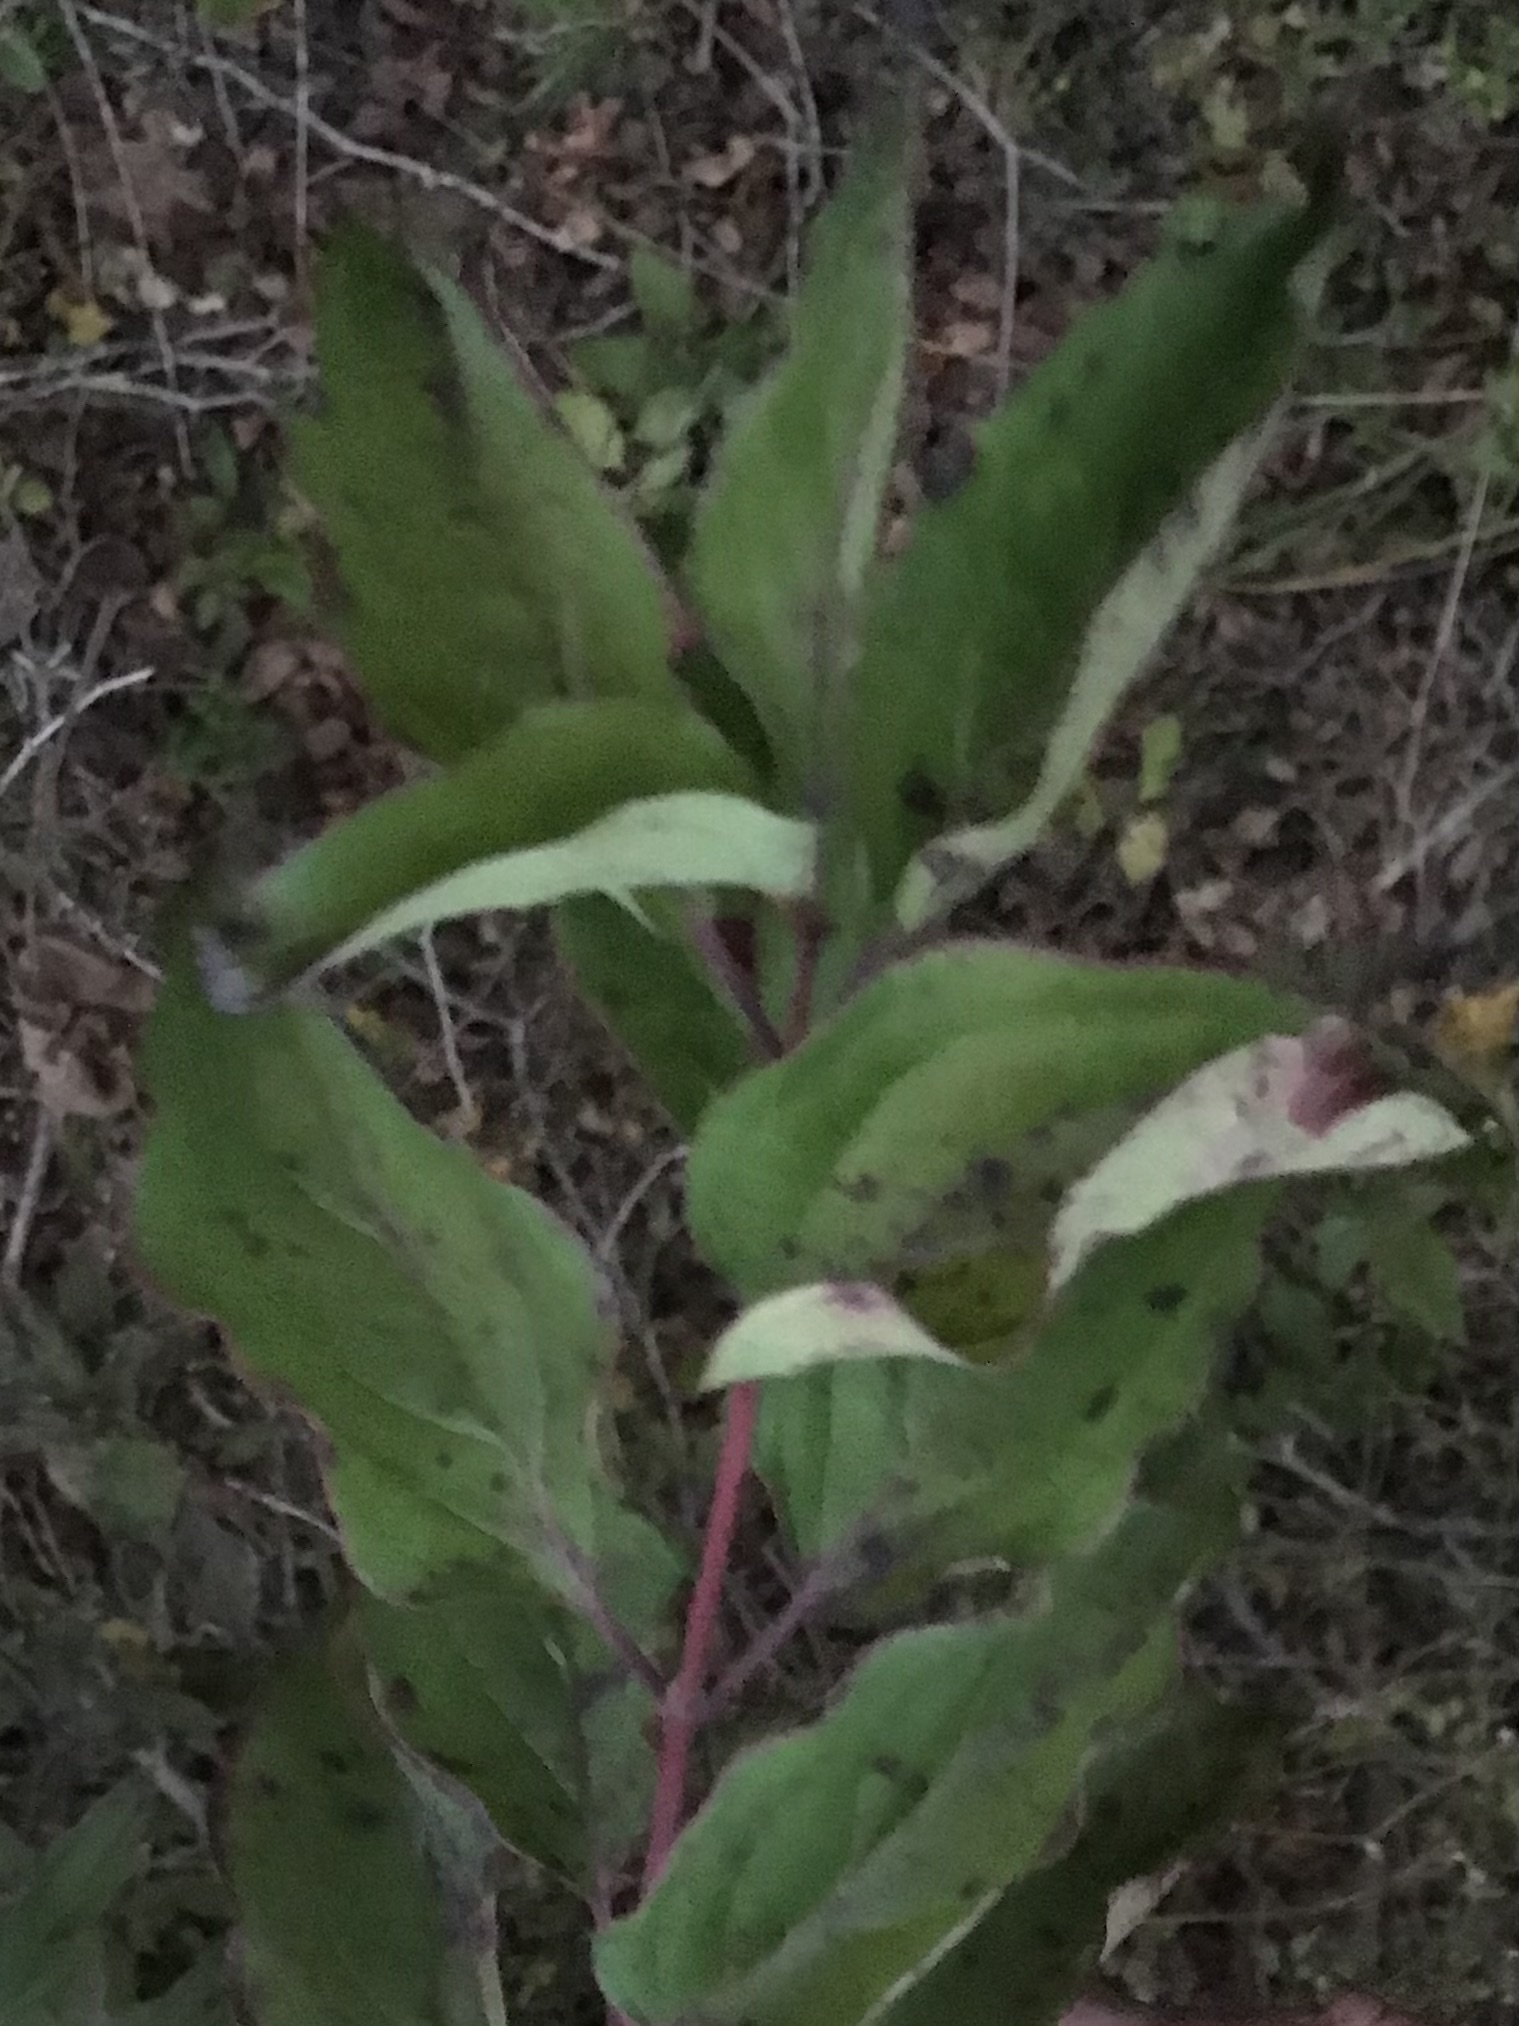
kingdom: Plantae
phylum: Tracheophyta
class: Magnoliopsida
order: Cornales
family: Cornaceae
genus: Cornus
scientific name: Cornus drummondii
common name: Rough-leaf dogwood
